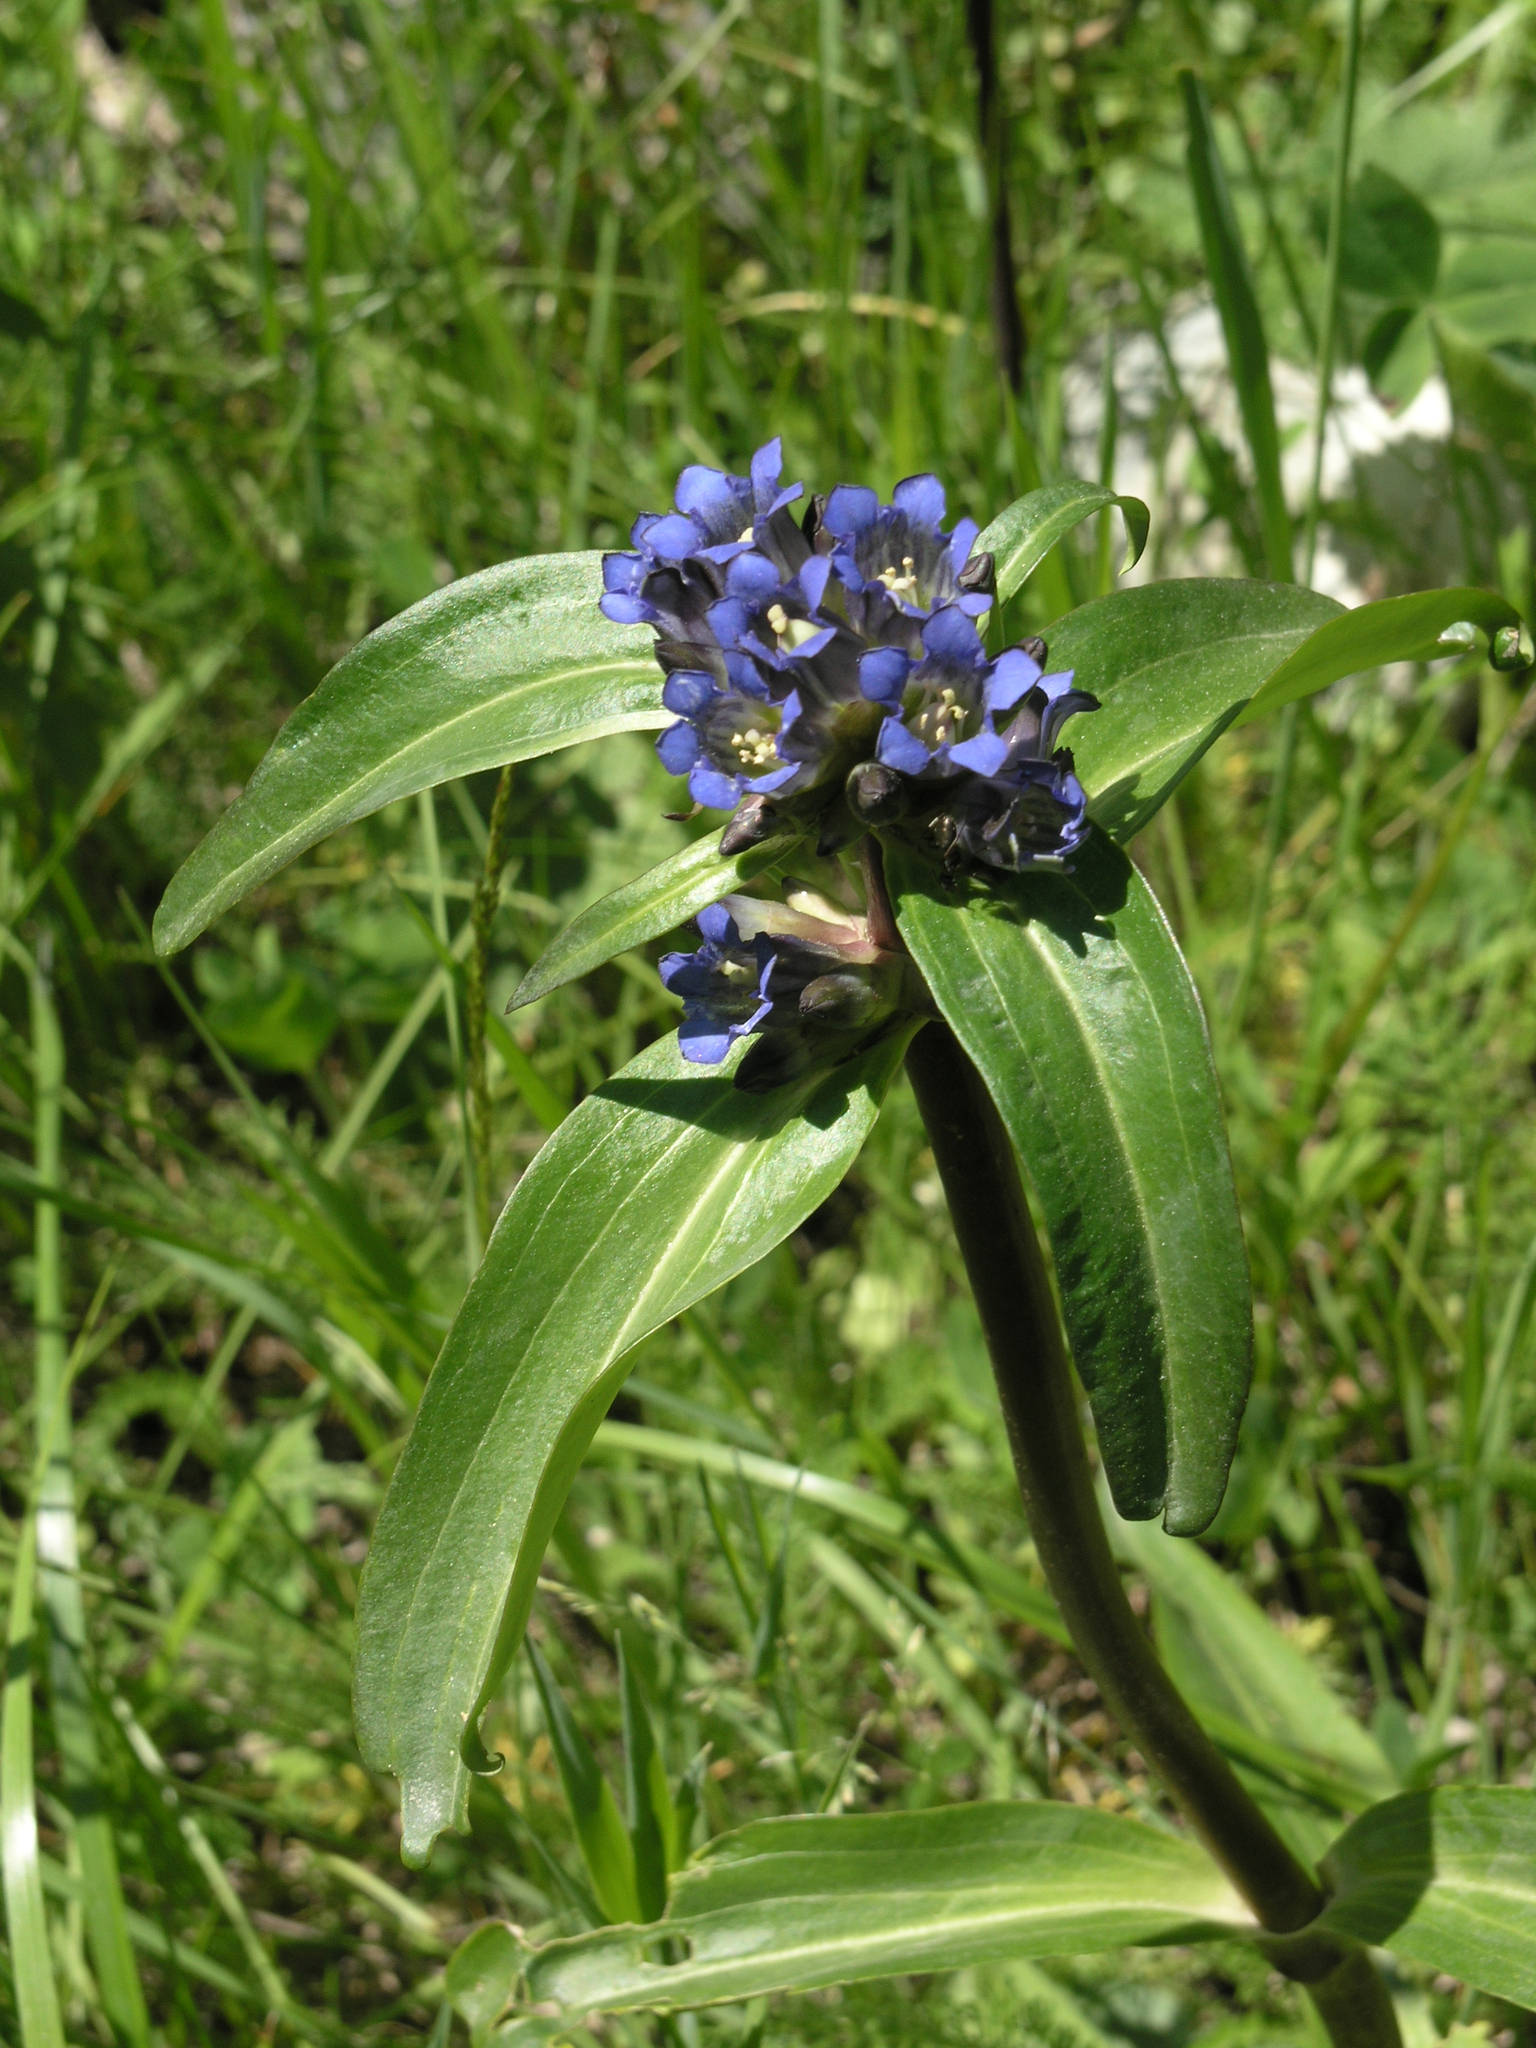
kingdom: Plantae
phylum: Tracheophyta
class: Magnoliopsida
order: Gentianales
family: Gentianaceae
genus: Gentiana
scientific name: Gentiana macrophylla
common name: Large-leaf gentian
